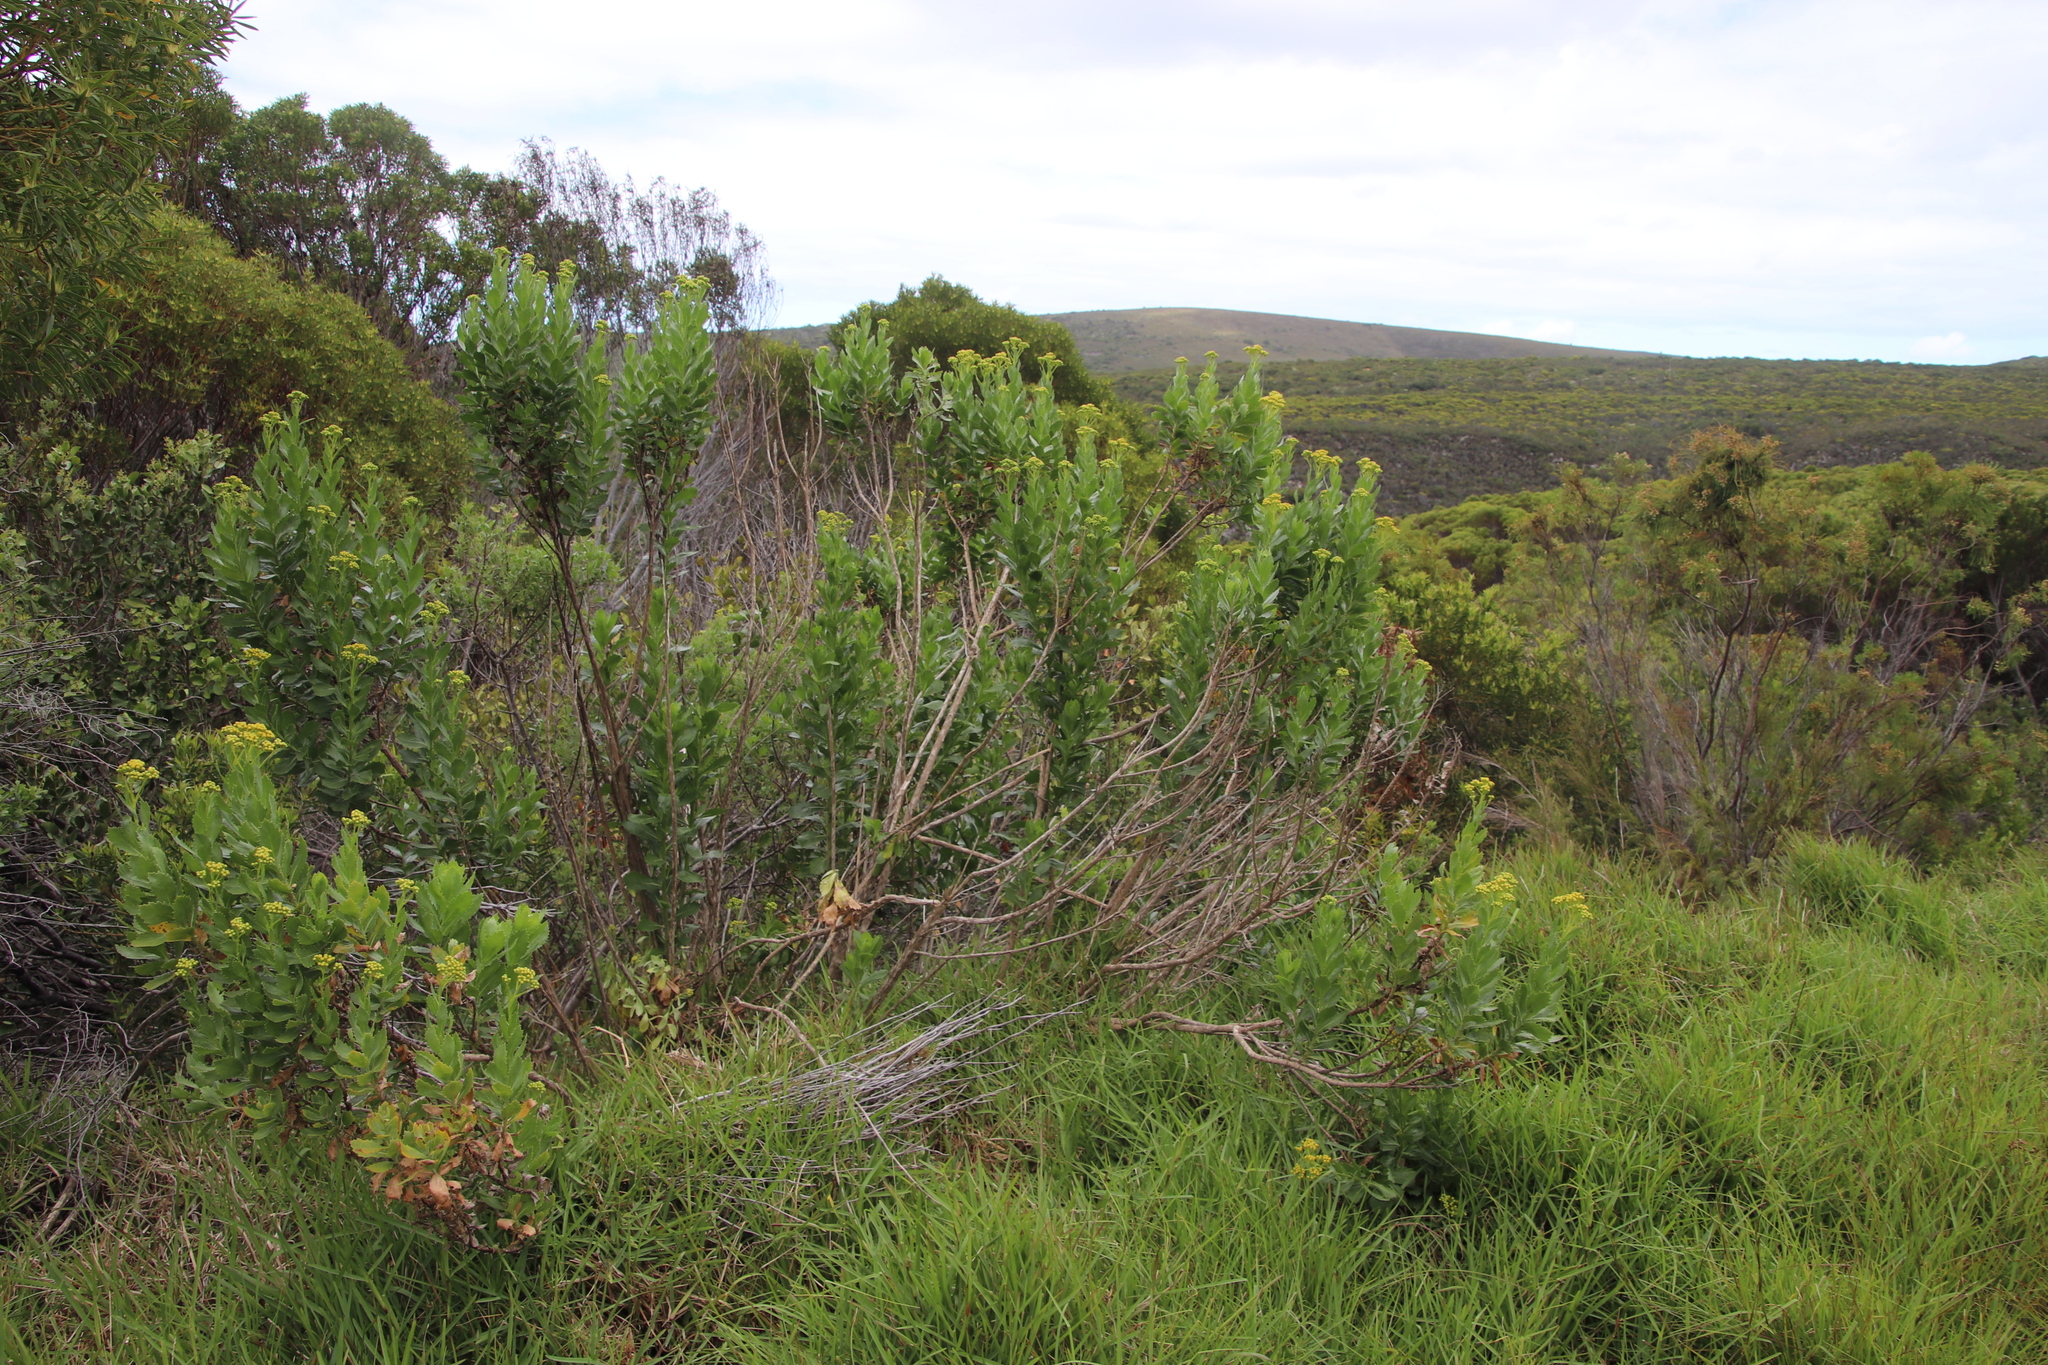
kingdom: Plantae
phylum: Tracheophyta
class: Magnoliopsida
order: Asterales
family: Asteraceae
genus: Senecio
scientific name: Senecio halimifolius
